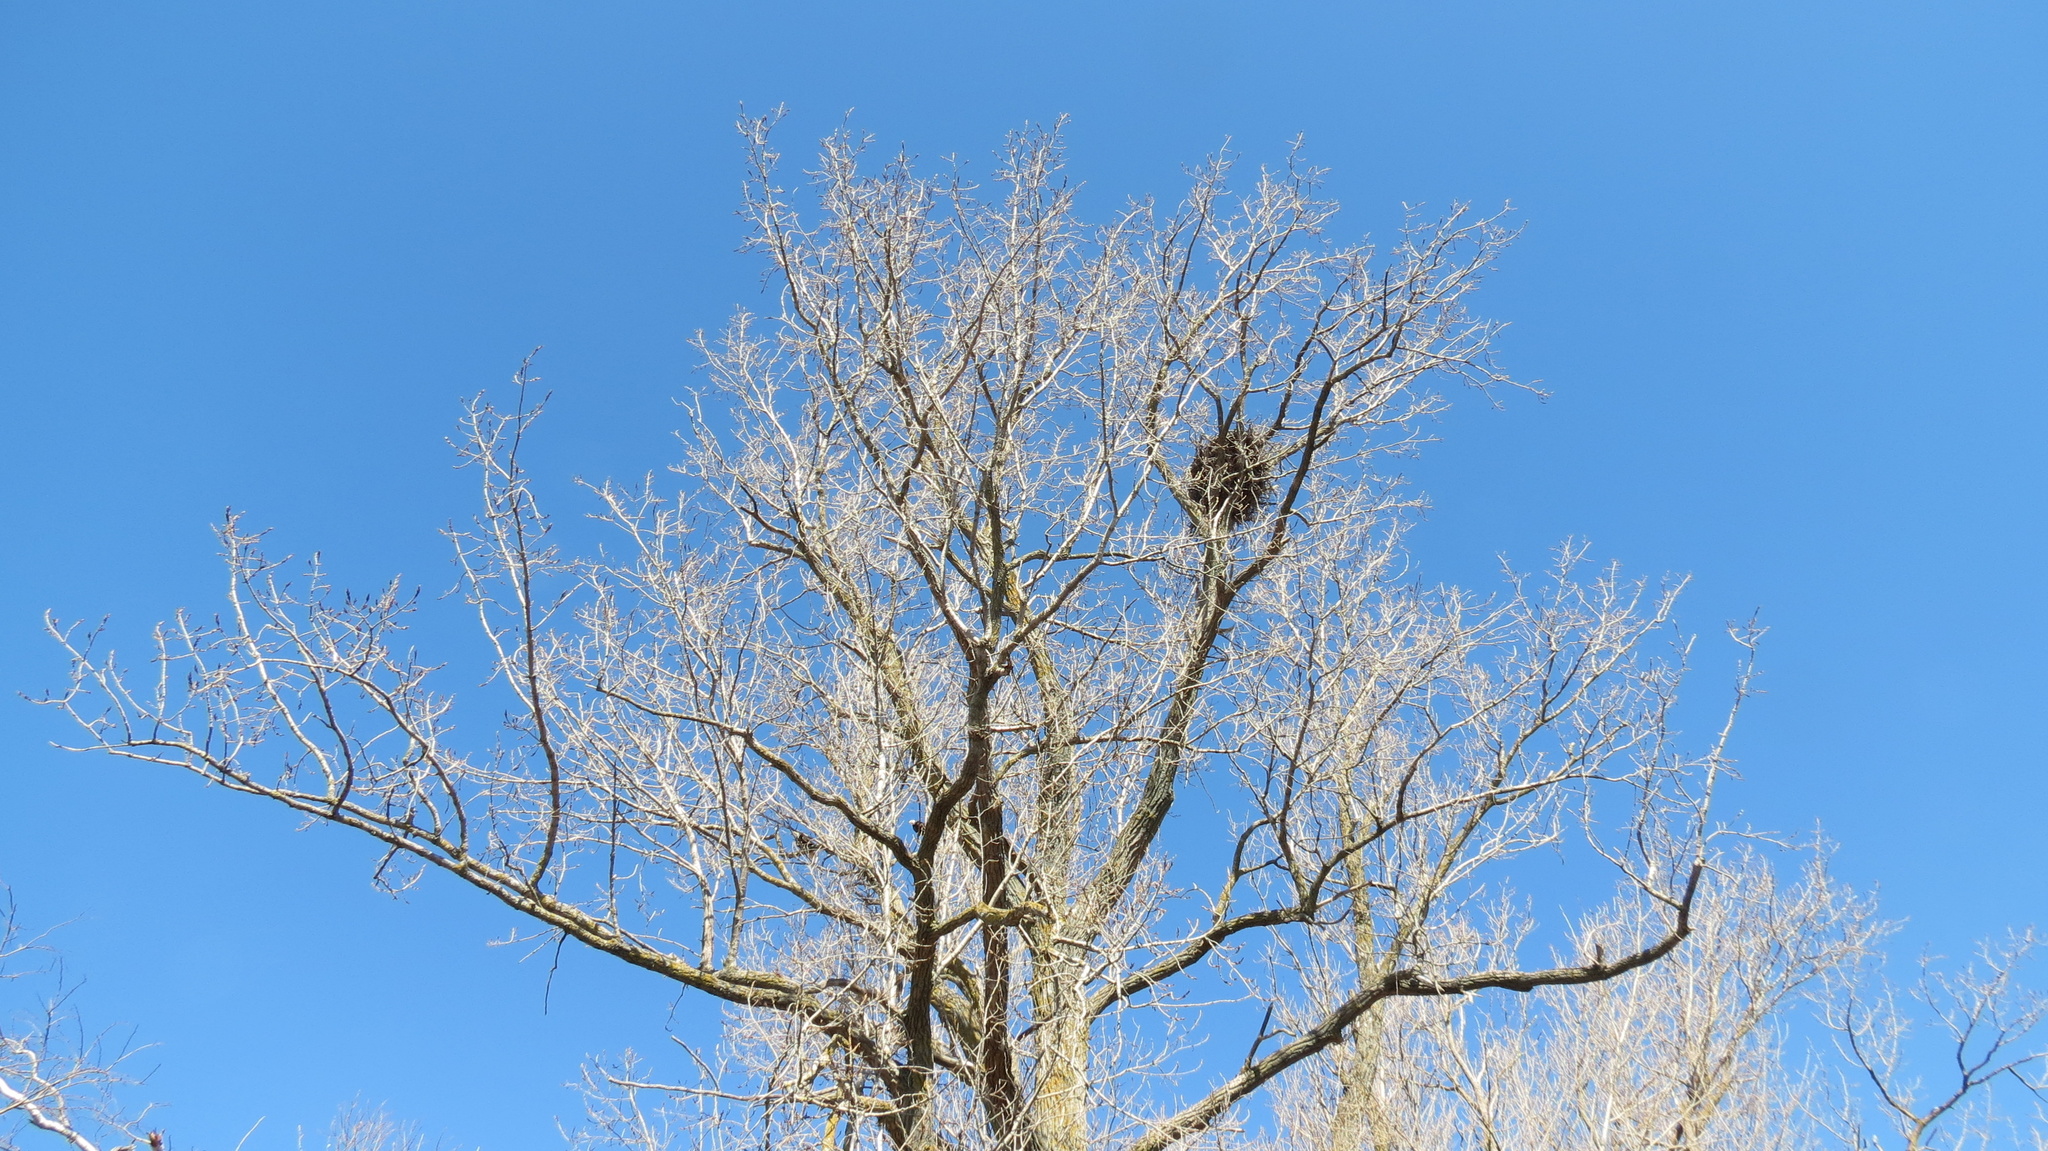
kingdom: Animalia
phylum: Chordata
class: Aves
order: Accipitriformes
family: Accipitridae
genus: Haliaeetus
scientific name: Haliaeetus leucocephalus
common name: Bald eagle
